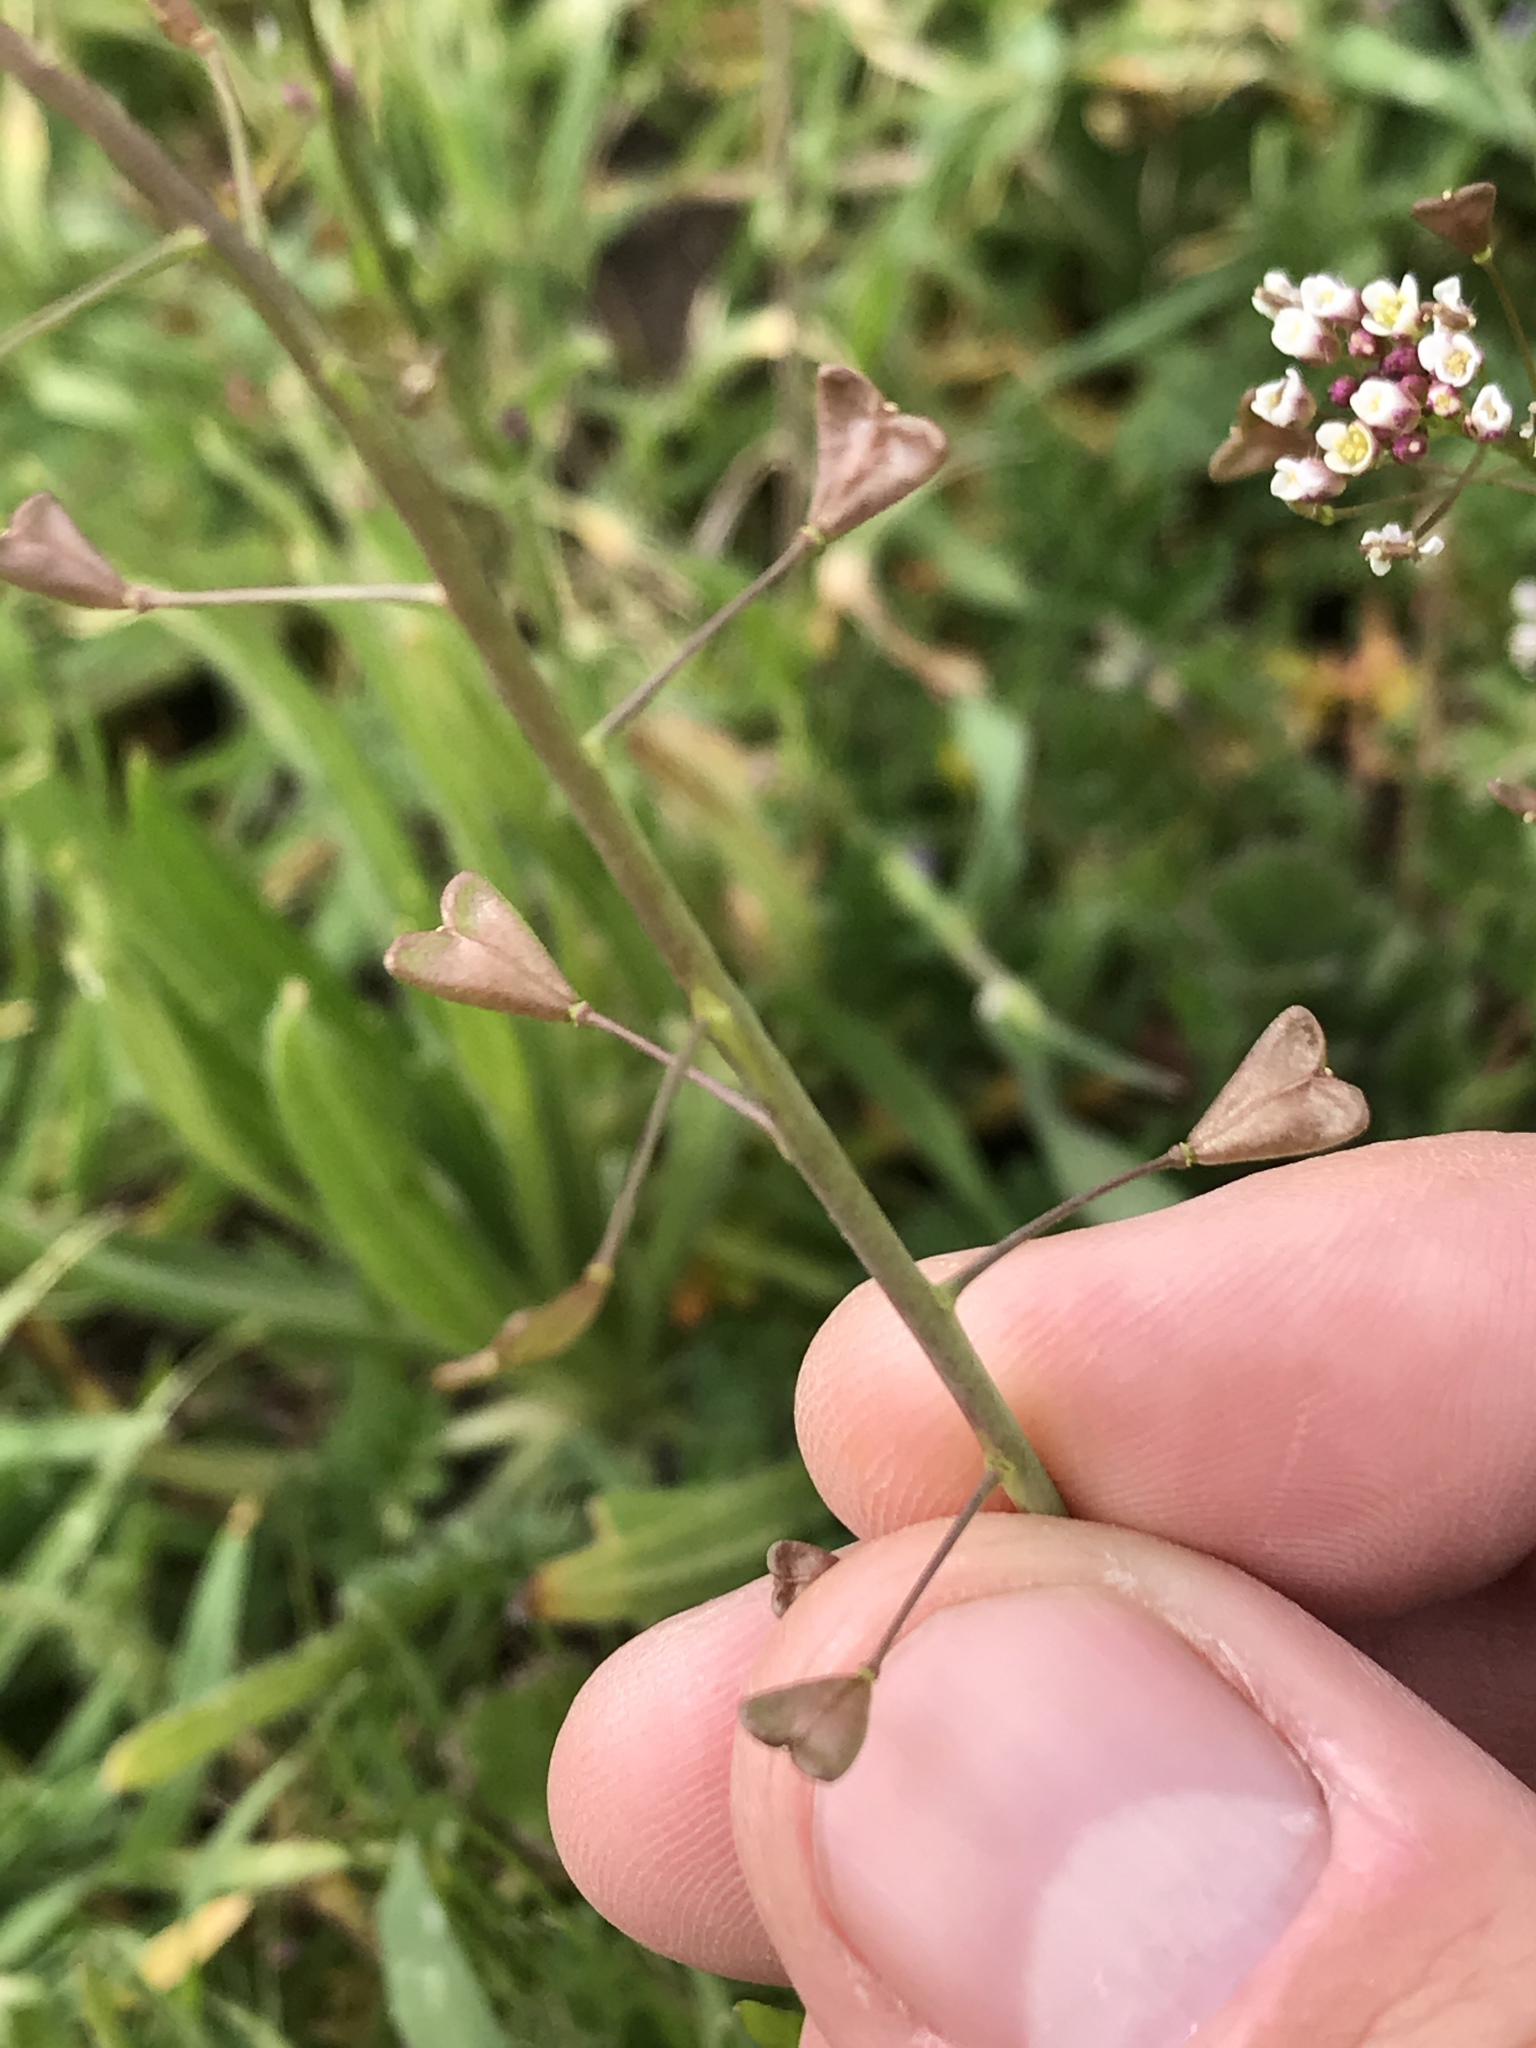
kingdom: Plantae
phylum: Tracheophyta
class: Magnoliopsida
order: Brassicales
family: Brassicaceae
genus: Capsella
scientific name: Capsella bursa-pastoris
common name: Shepherd's purse
